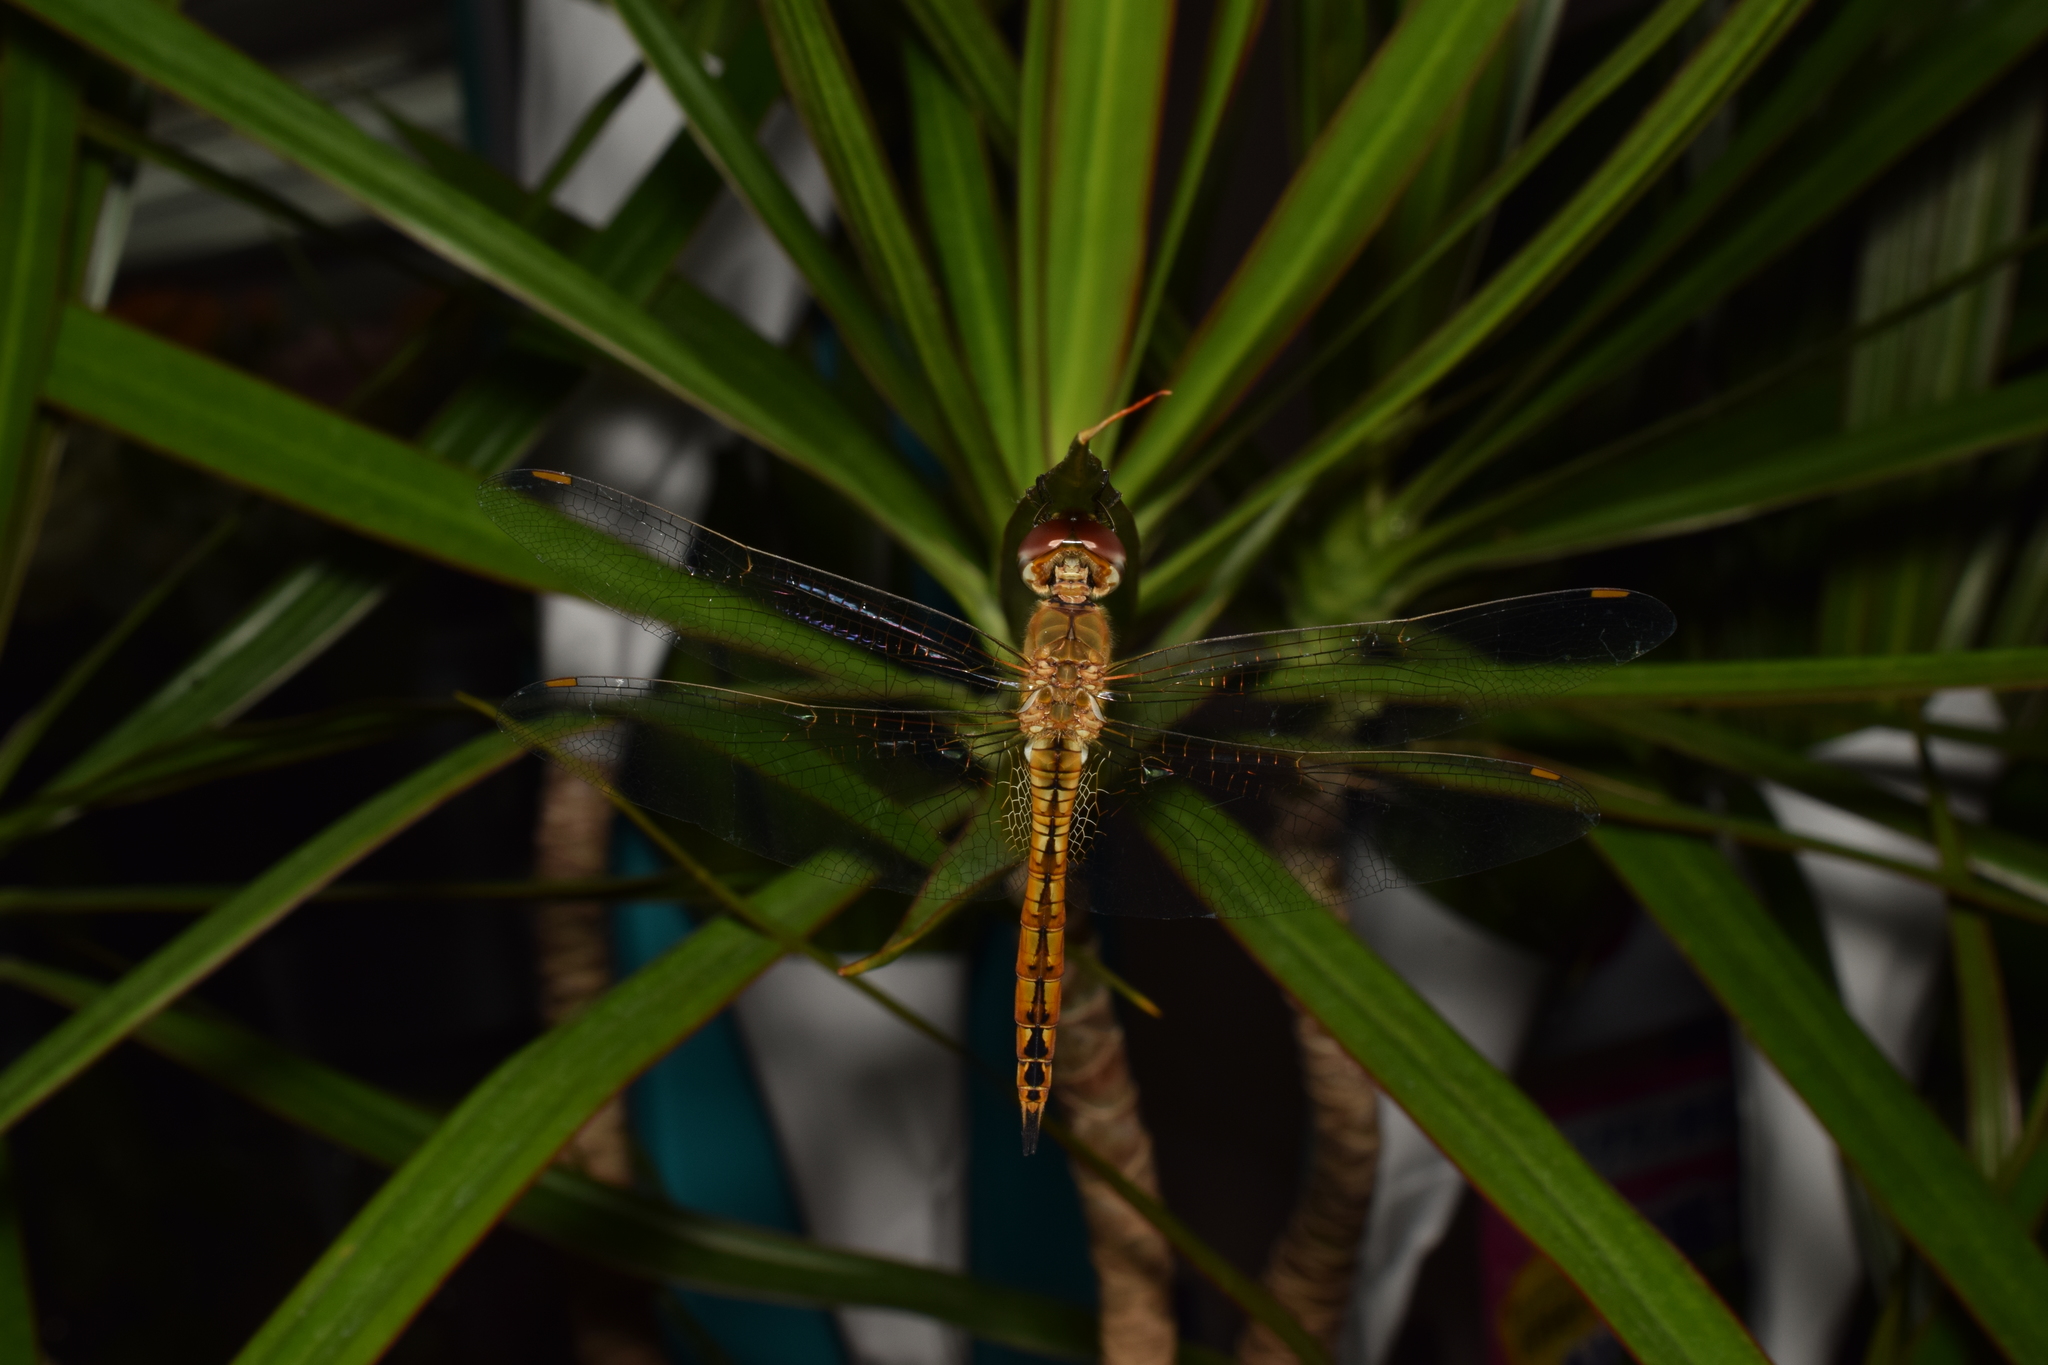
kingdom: Animalia
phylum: Arthropoda
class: Insecta
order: Odonata
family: Libellulidae
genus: Pantala
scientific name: Pantala flavescens
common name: Wandering glider
